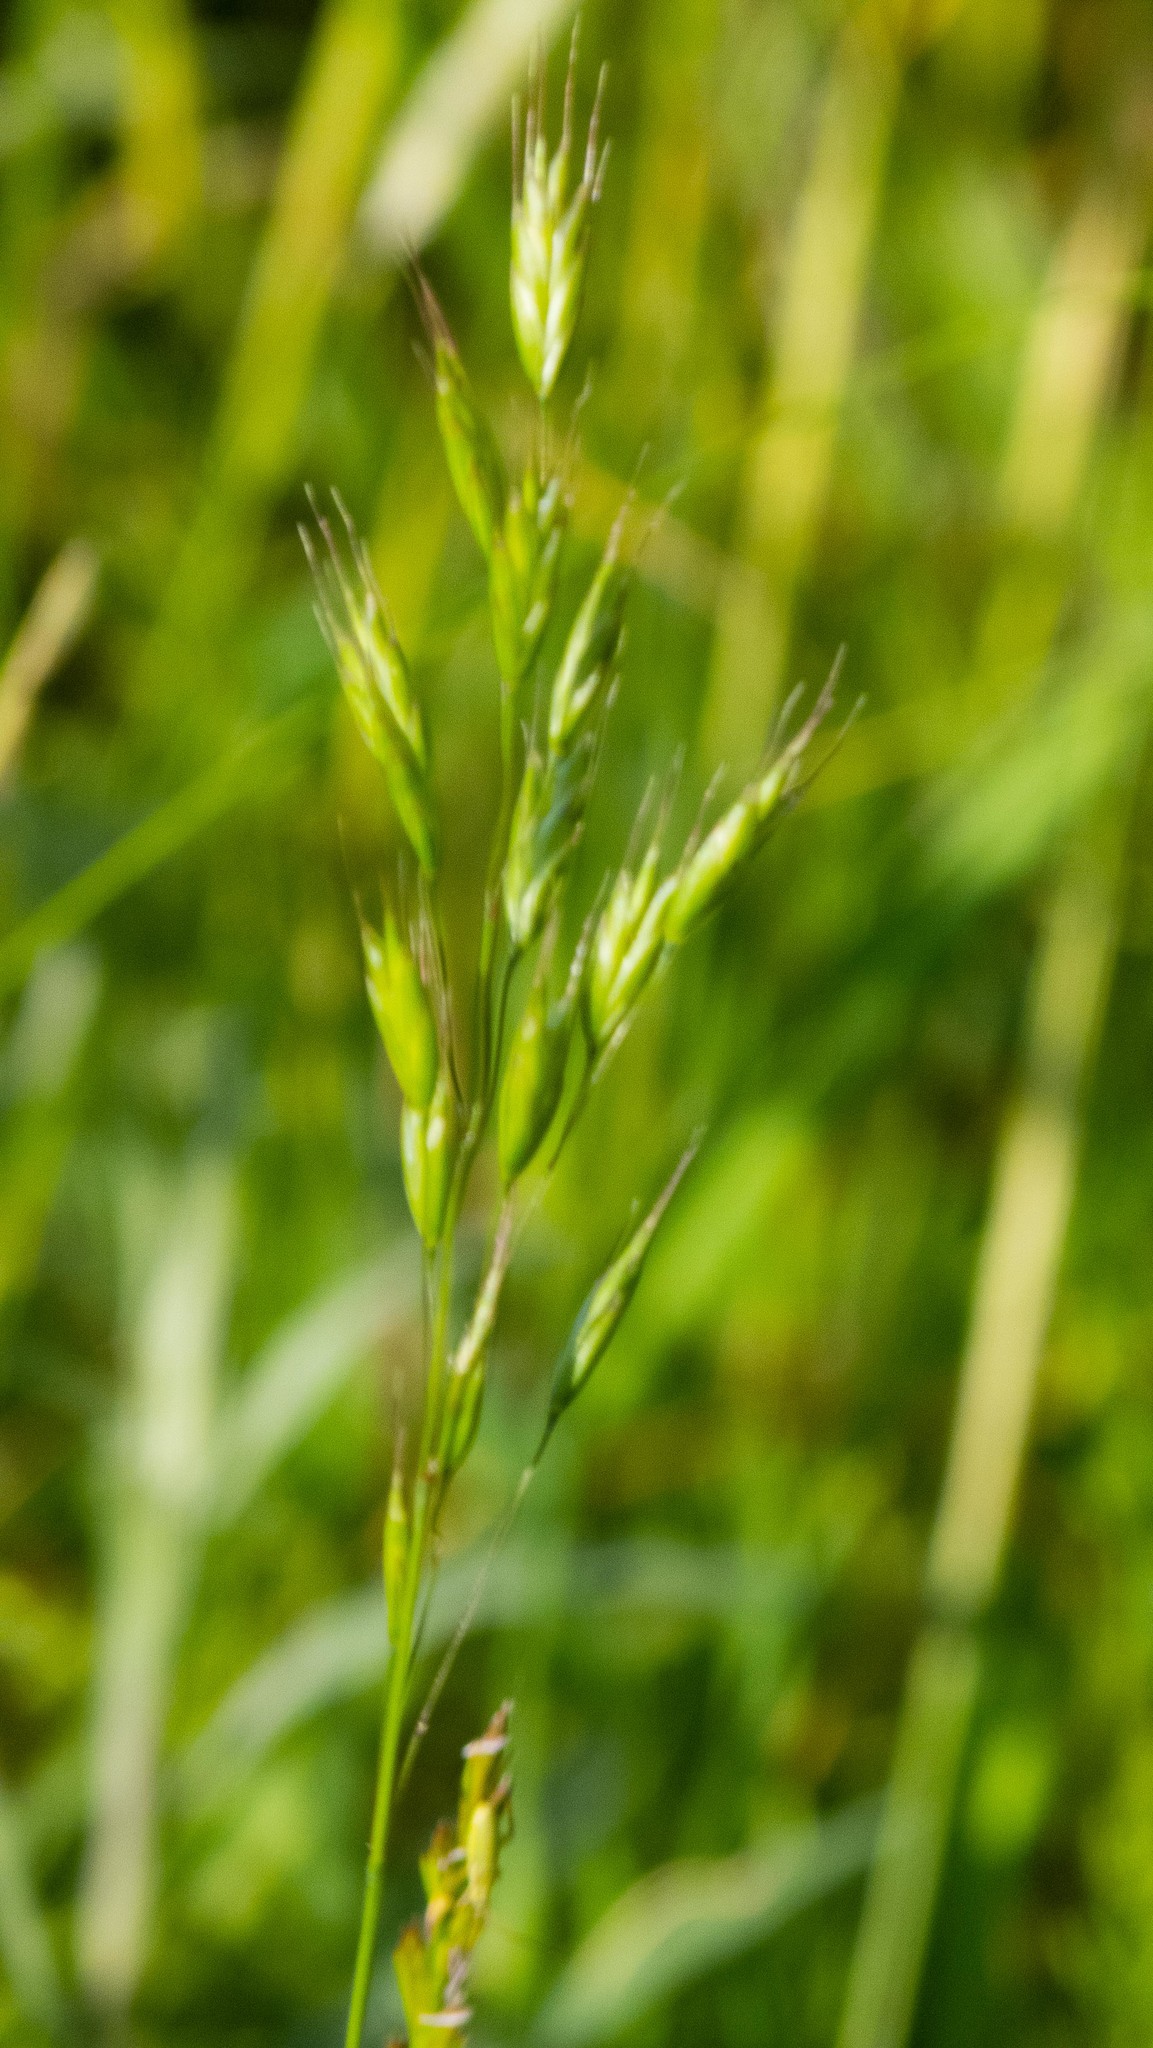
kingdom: Plantae
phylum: Tracheophyta
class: Liliopsida
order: Poales
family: Poaceae
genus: Bromus
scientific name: Bromus hordeaceus
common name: Soft brome
